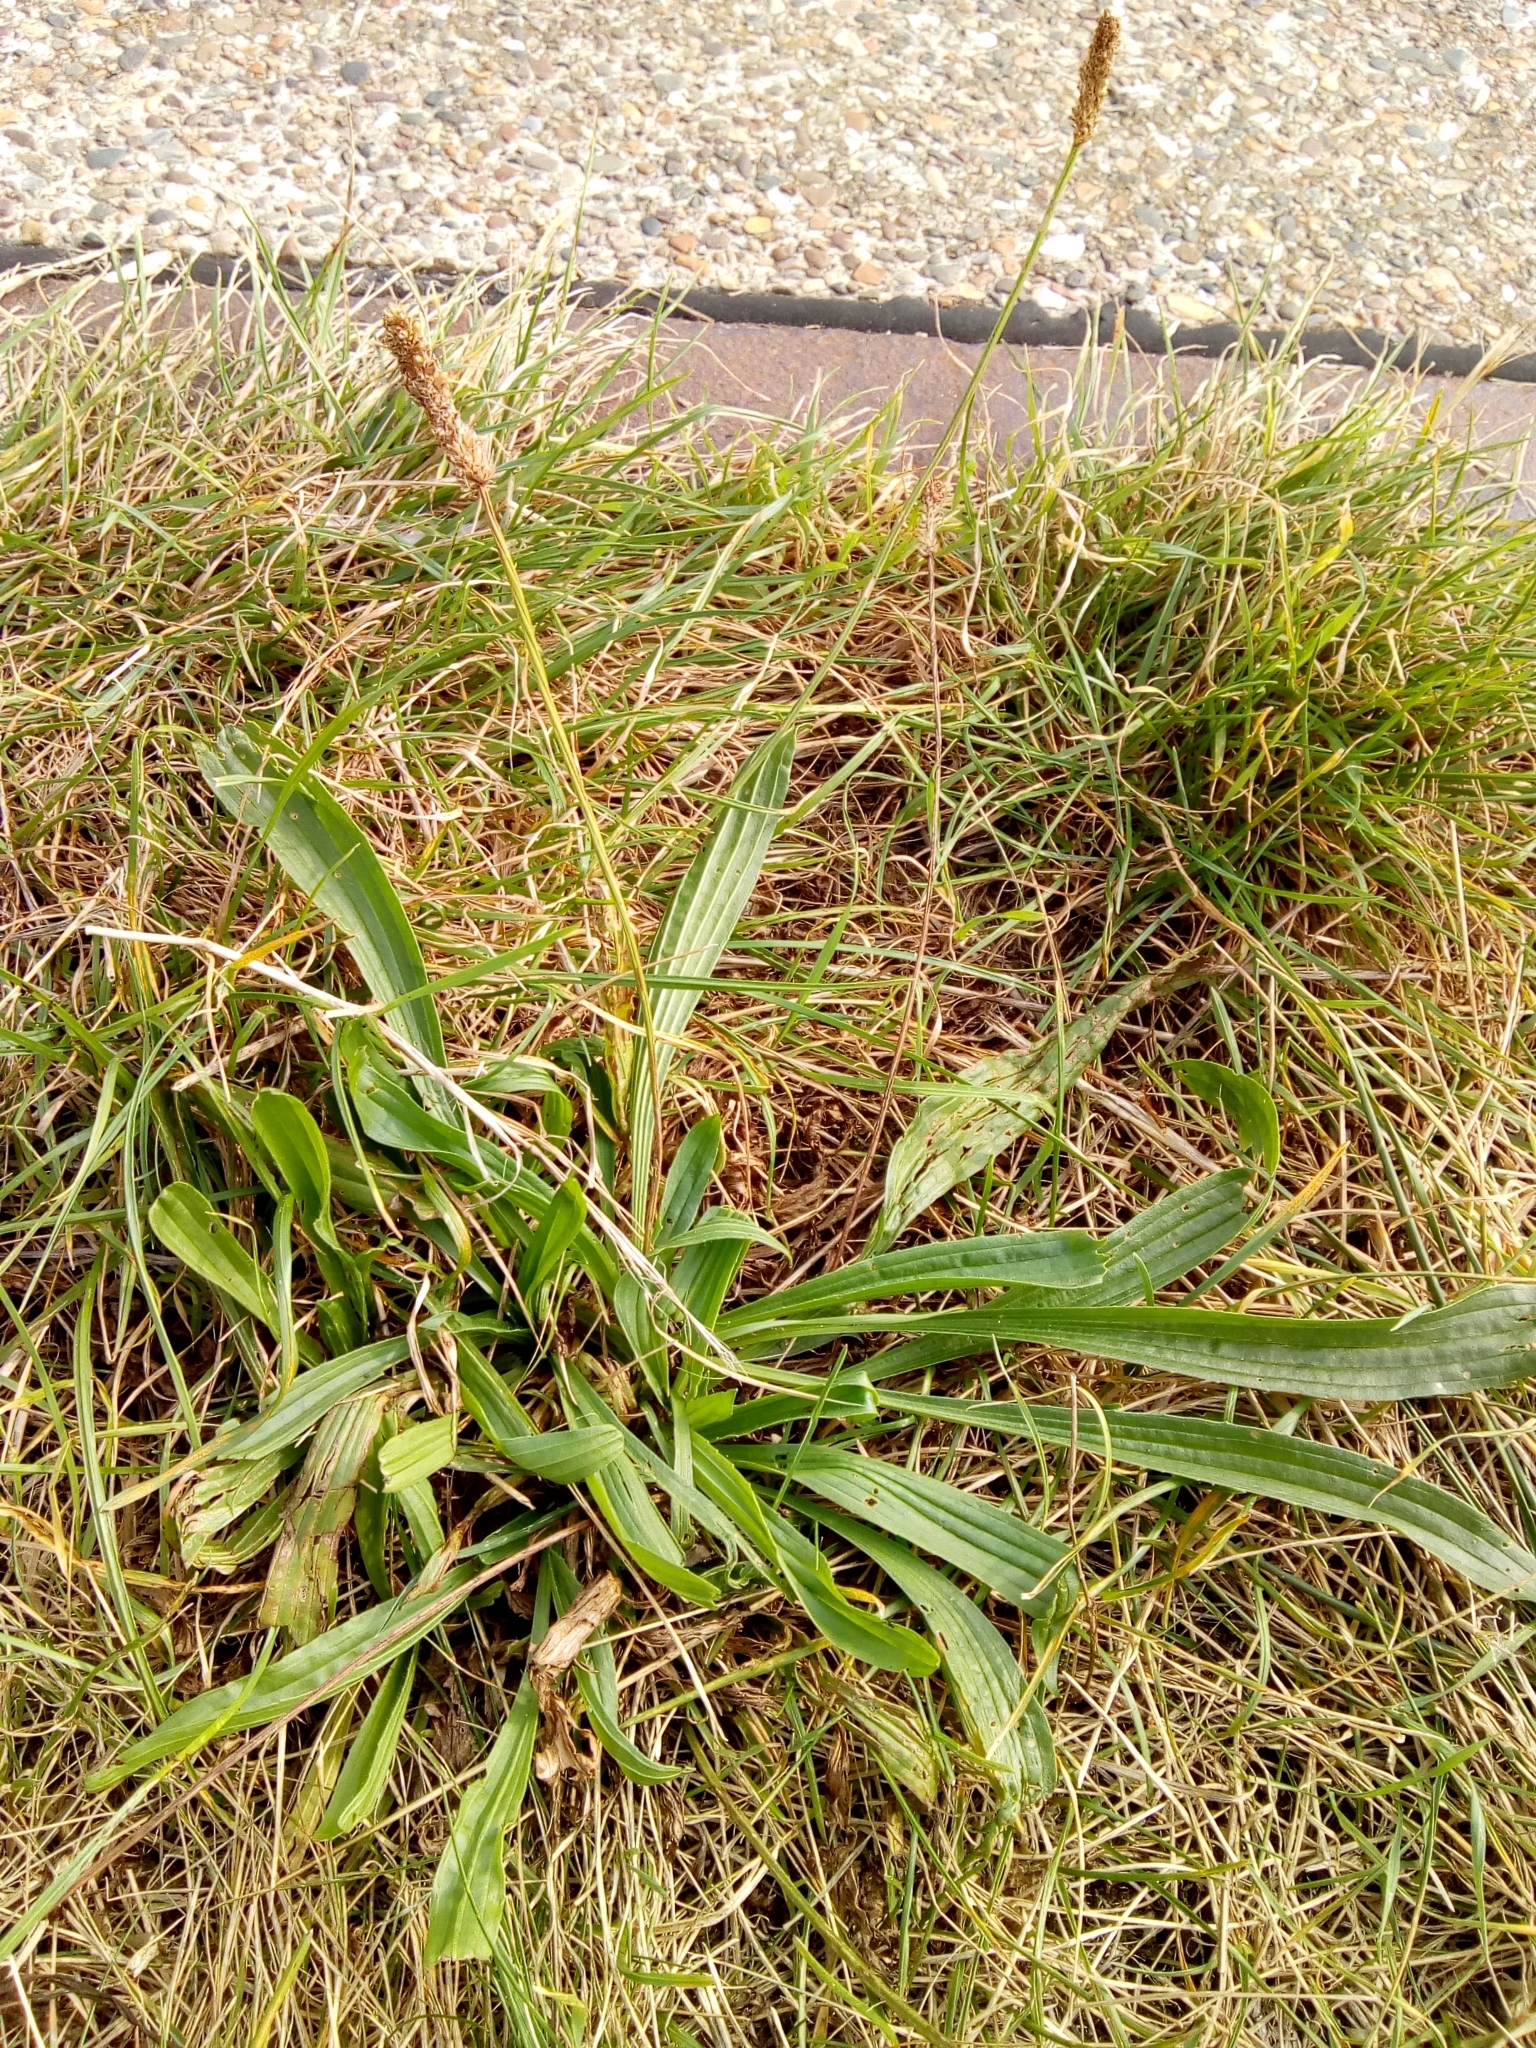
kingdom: Plantae
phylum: Tracheophyta
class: Magnoliopsida
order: Lamiales
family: Plantaginaceae
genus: Plantago
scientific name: Plantago lanceolata
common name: Ribwort plantain
